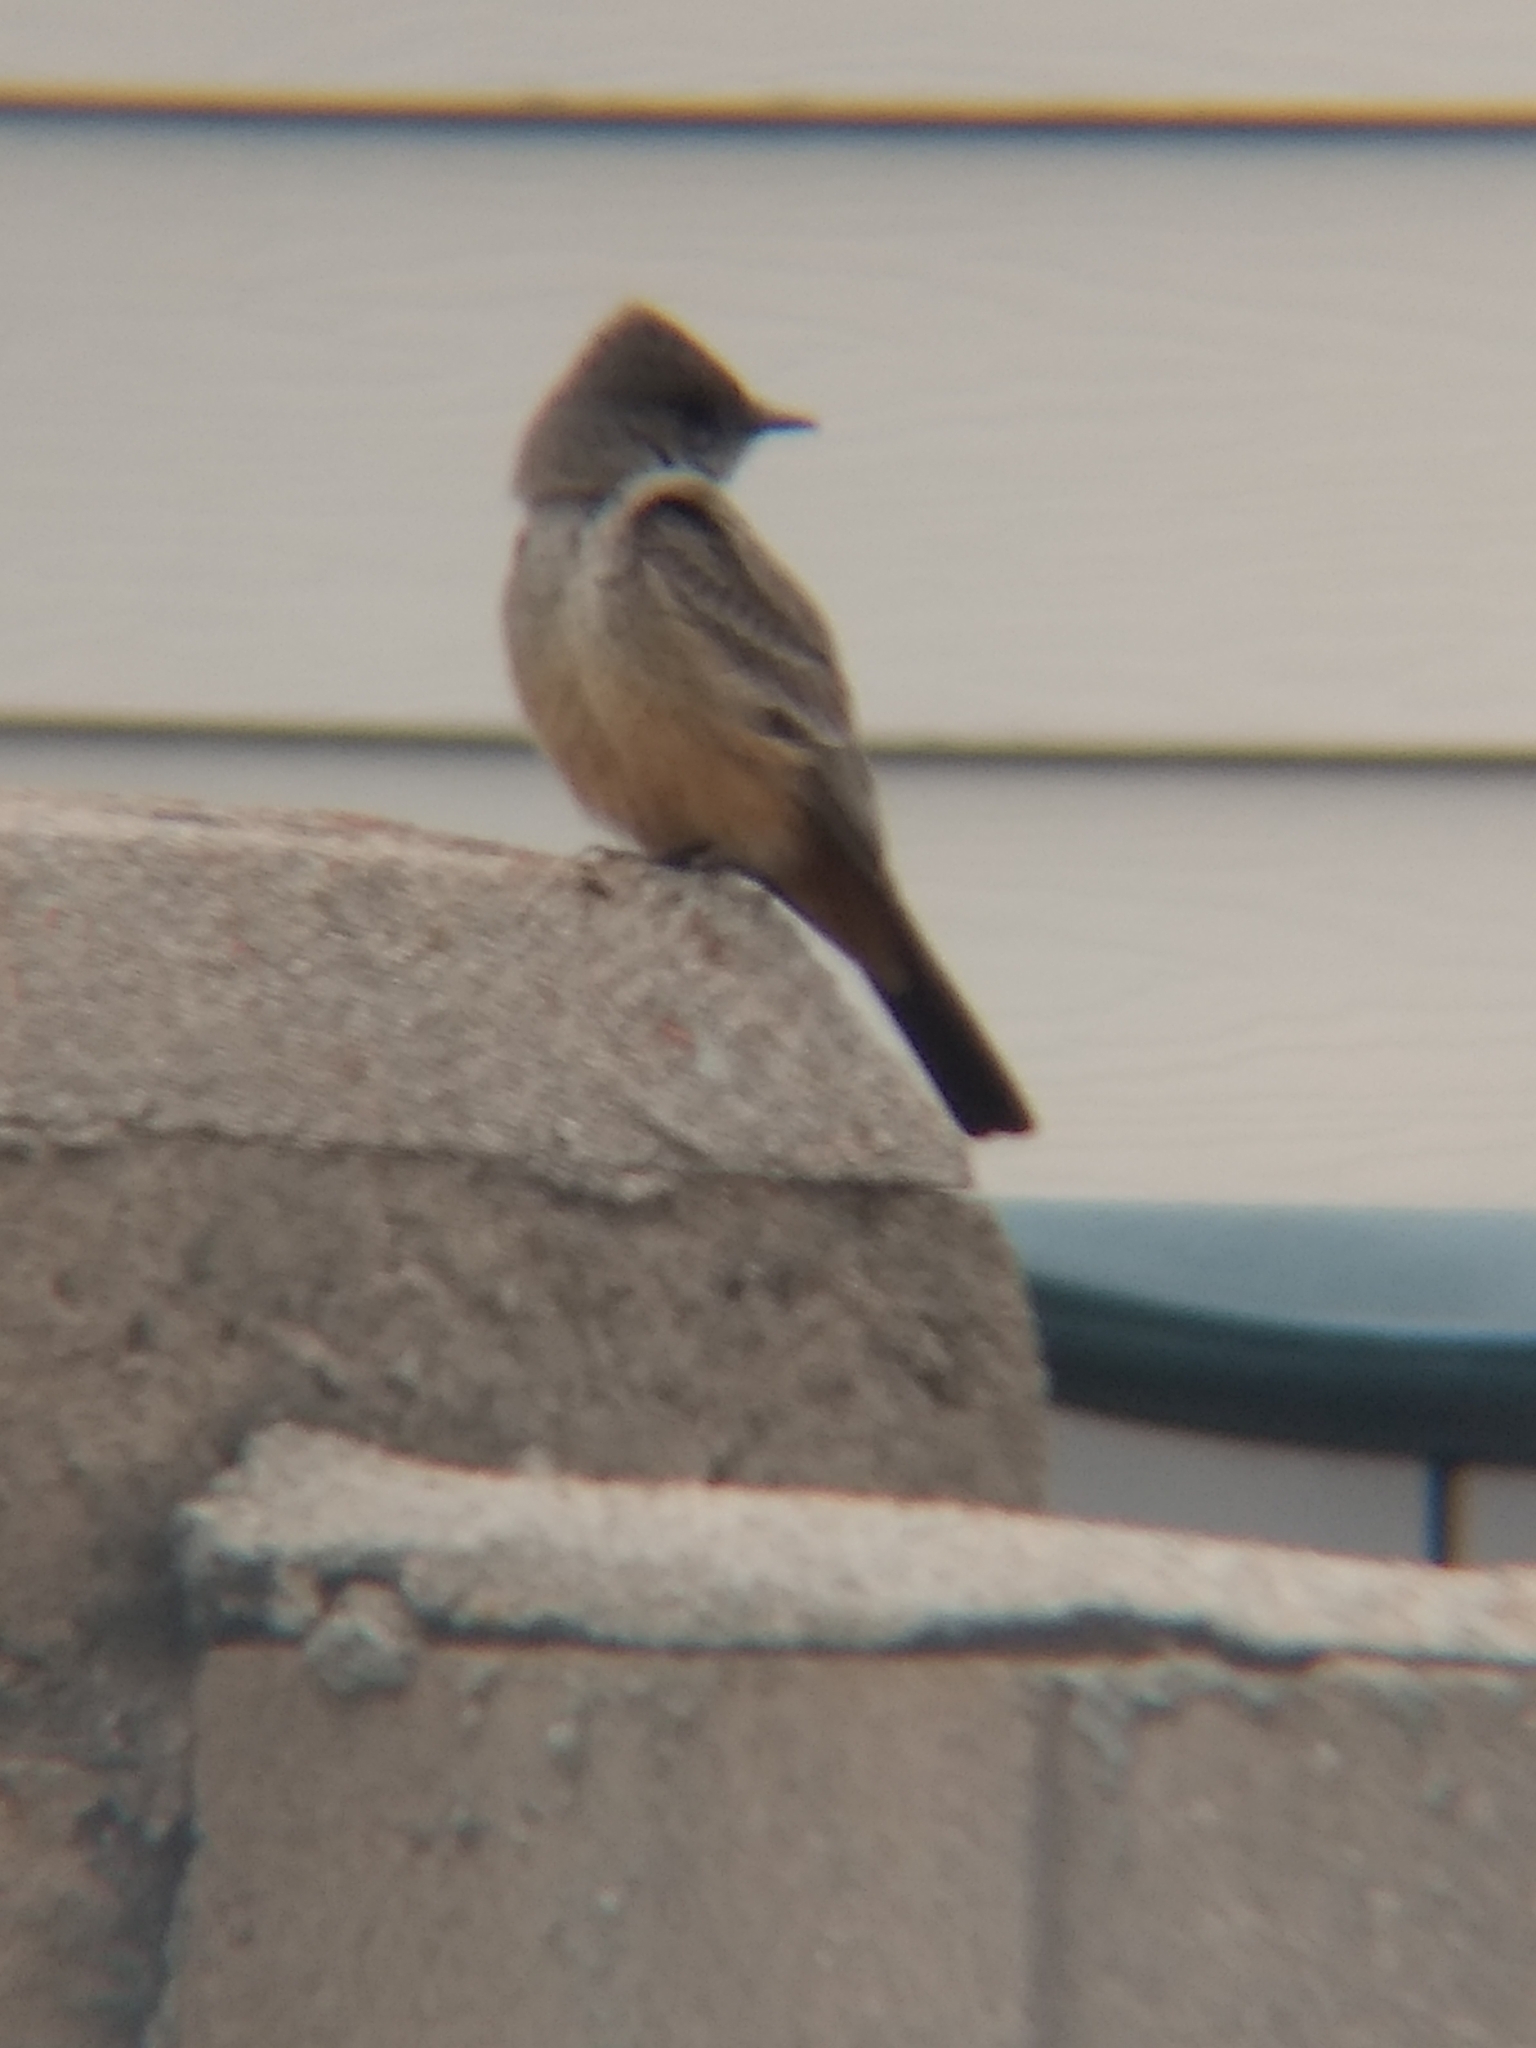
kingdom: Animalia
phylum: Chordata
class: Aves
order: Passeriformes
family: Tyrannidae
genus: Sayornis
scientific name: Sayornis saya
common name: Say's phoebe
